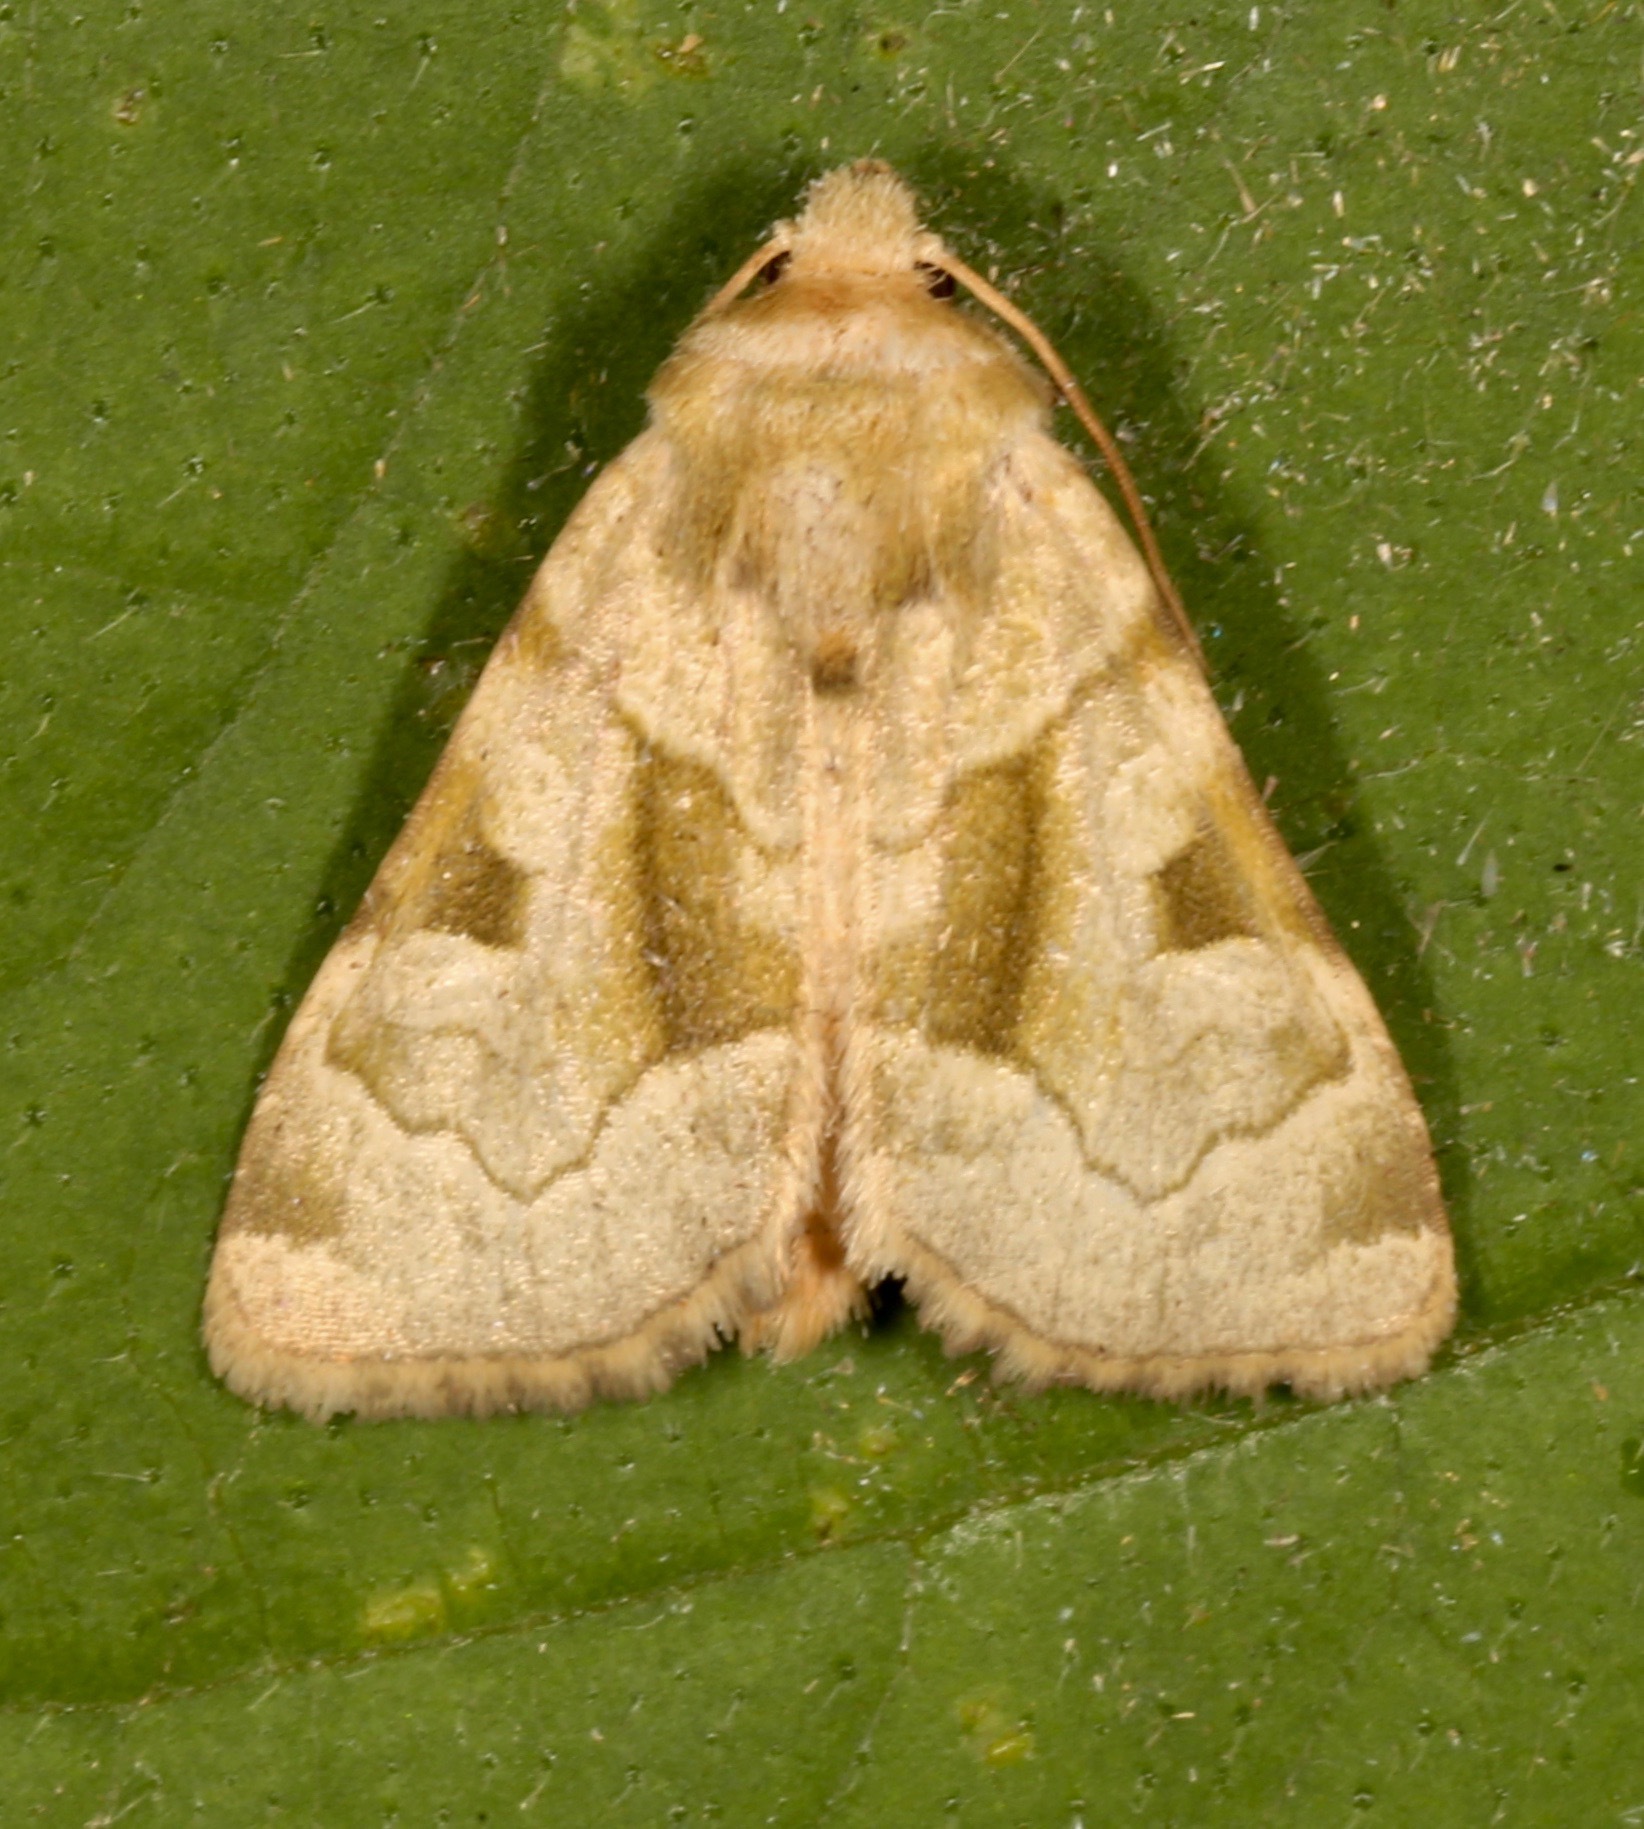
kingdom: Animalia
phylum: Arthropoda
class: Insecta
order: Lepidoptera
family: Noctuidae
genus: Oslaria
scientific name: Oslaria viridifera
